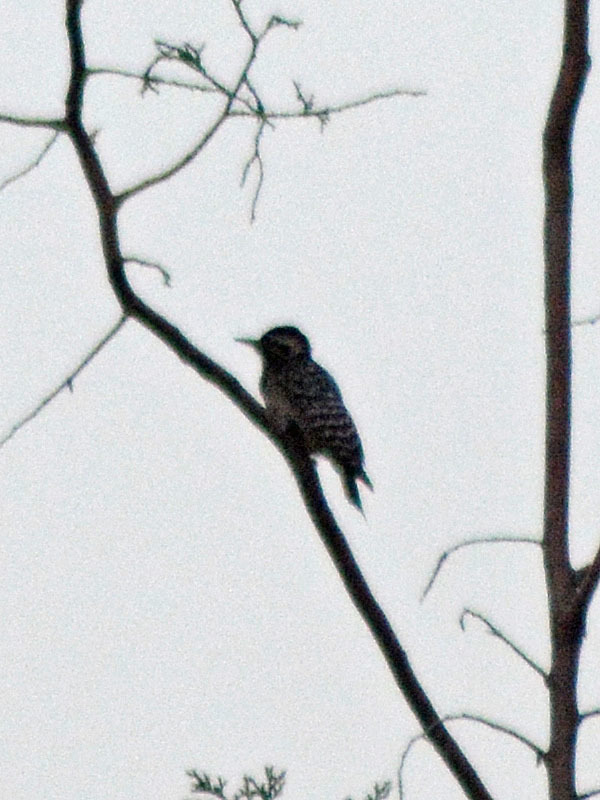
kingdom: Animalia
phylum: Chordata
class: Aves
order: Piciformes
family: Picidae
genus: Dryobates
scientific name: Dryobates scalaris
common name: Ladder-backed woodpecker
